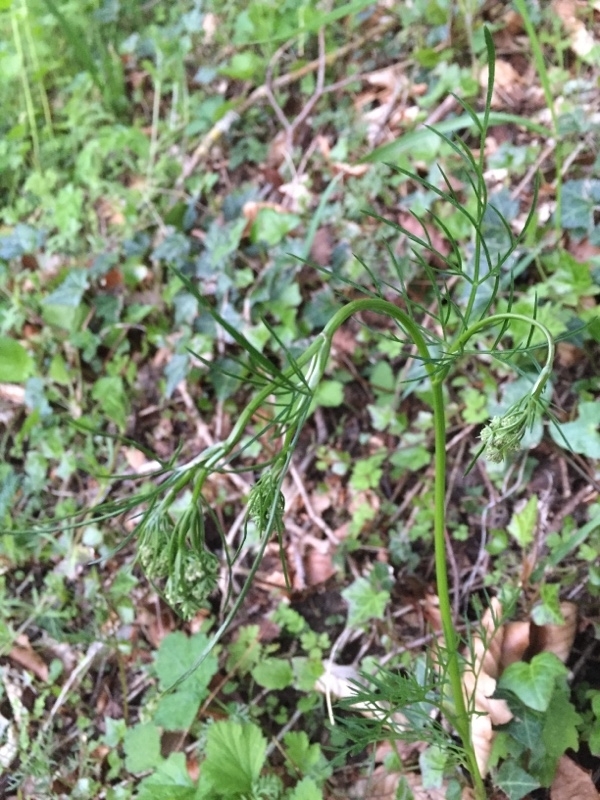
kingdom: Plantae
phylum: Tracheophyta
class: Magnoliopsida
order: Apiales
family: Apiaceae
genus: Conopodium
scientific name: Conopodium majus
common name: Pignut
